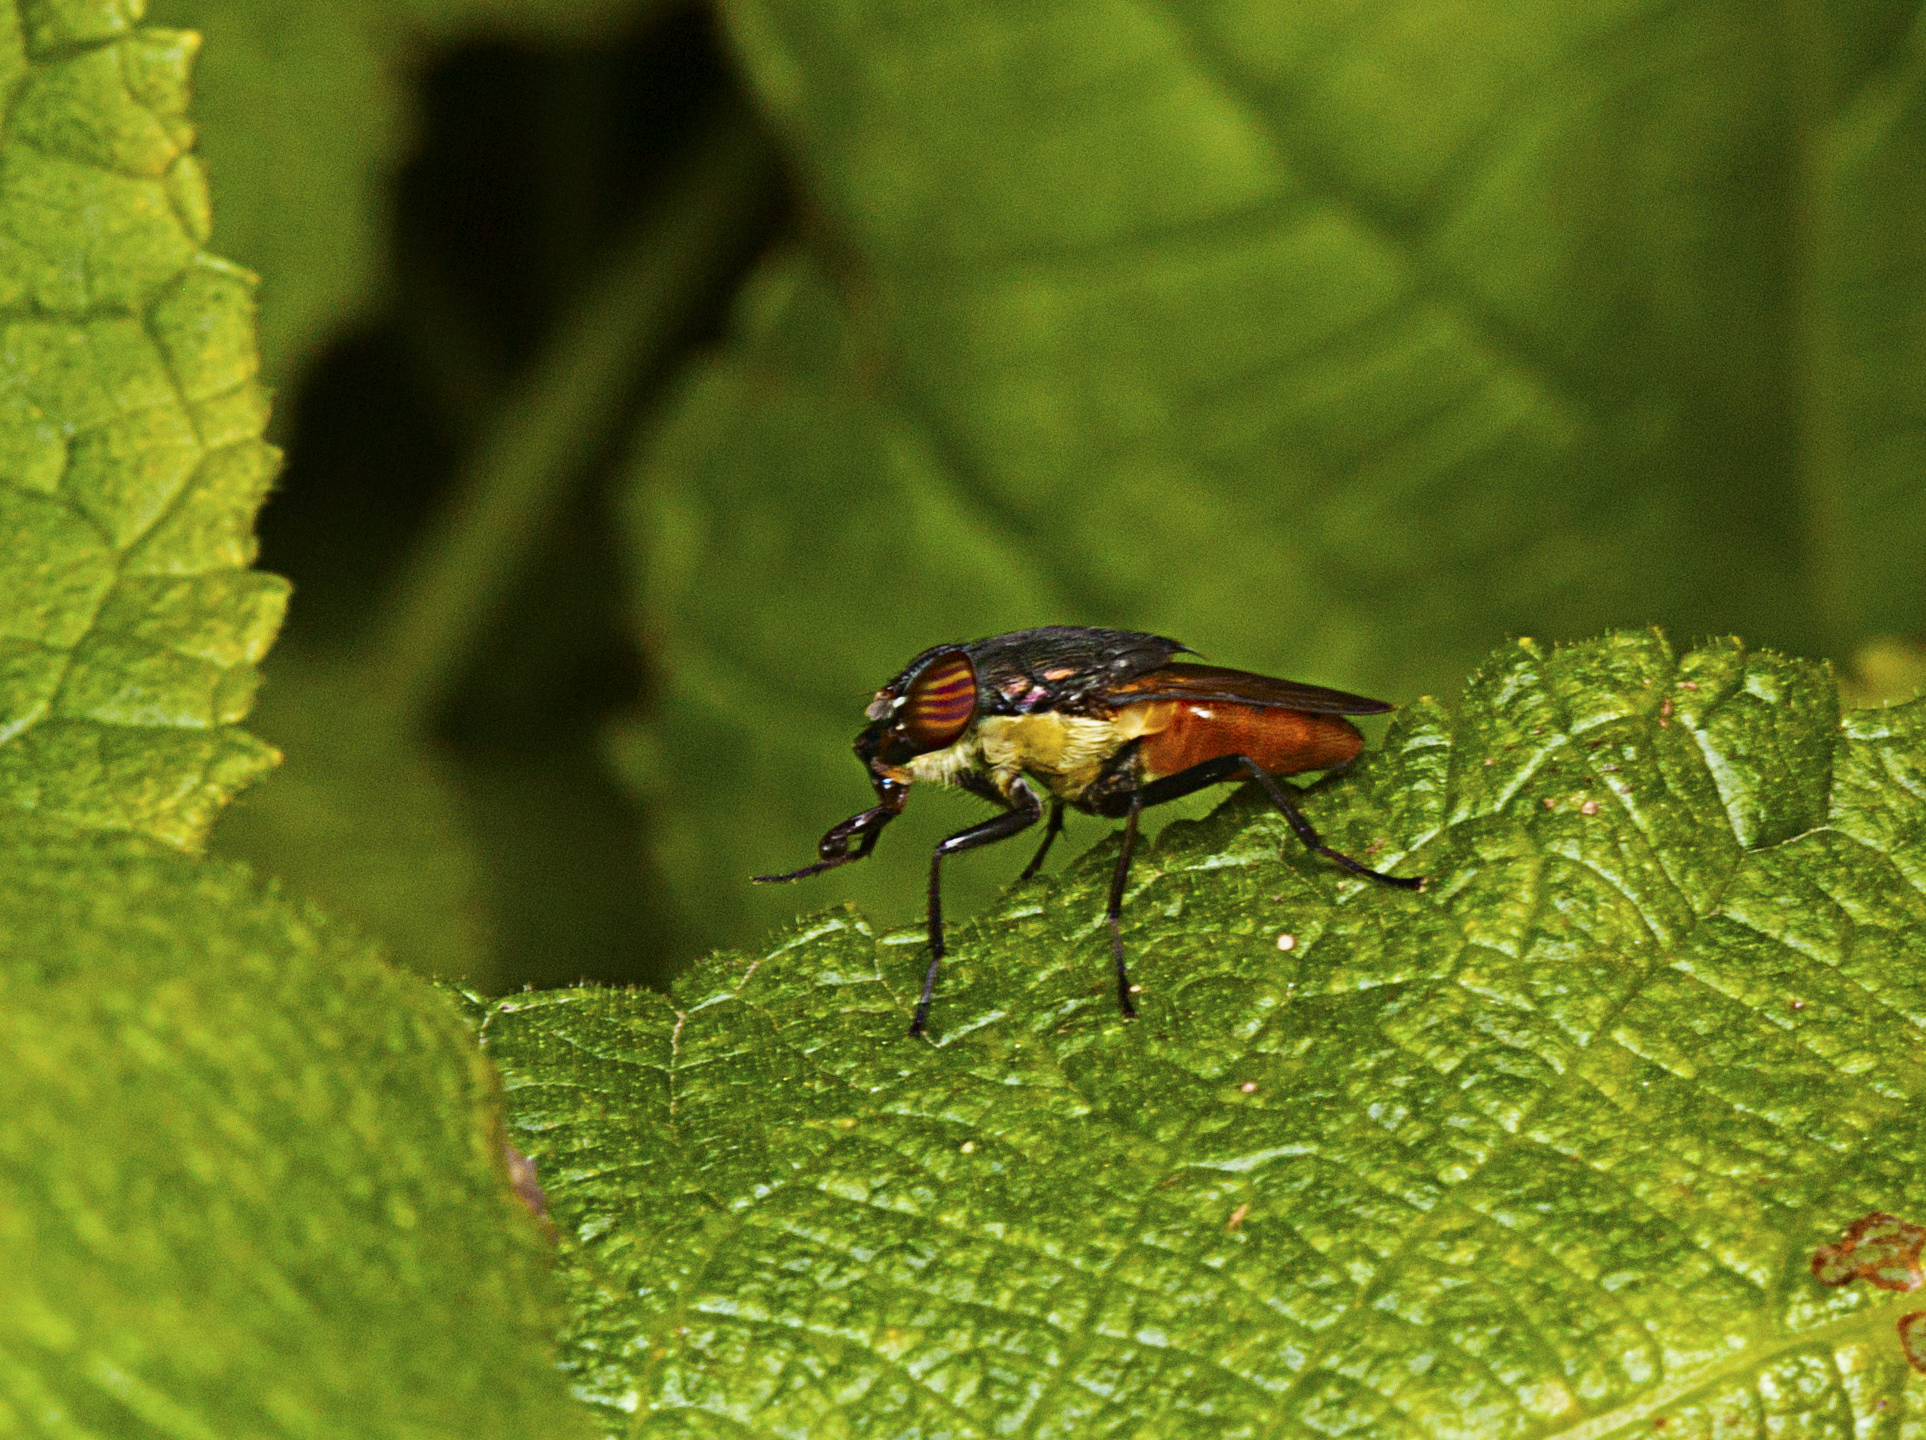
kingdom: Animalia
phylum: Arthropoda
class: Insecta
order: Diptera
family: Calliphoridae
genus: Idiellopsis
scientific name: Idiellopsis xanthogaster
